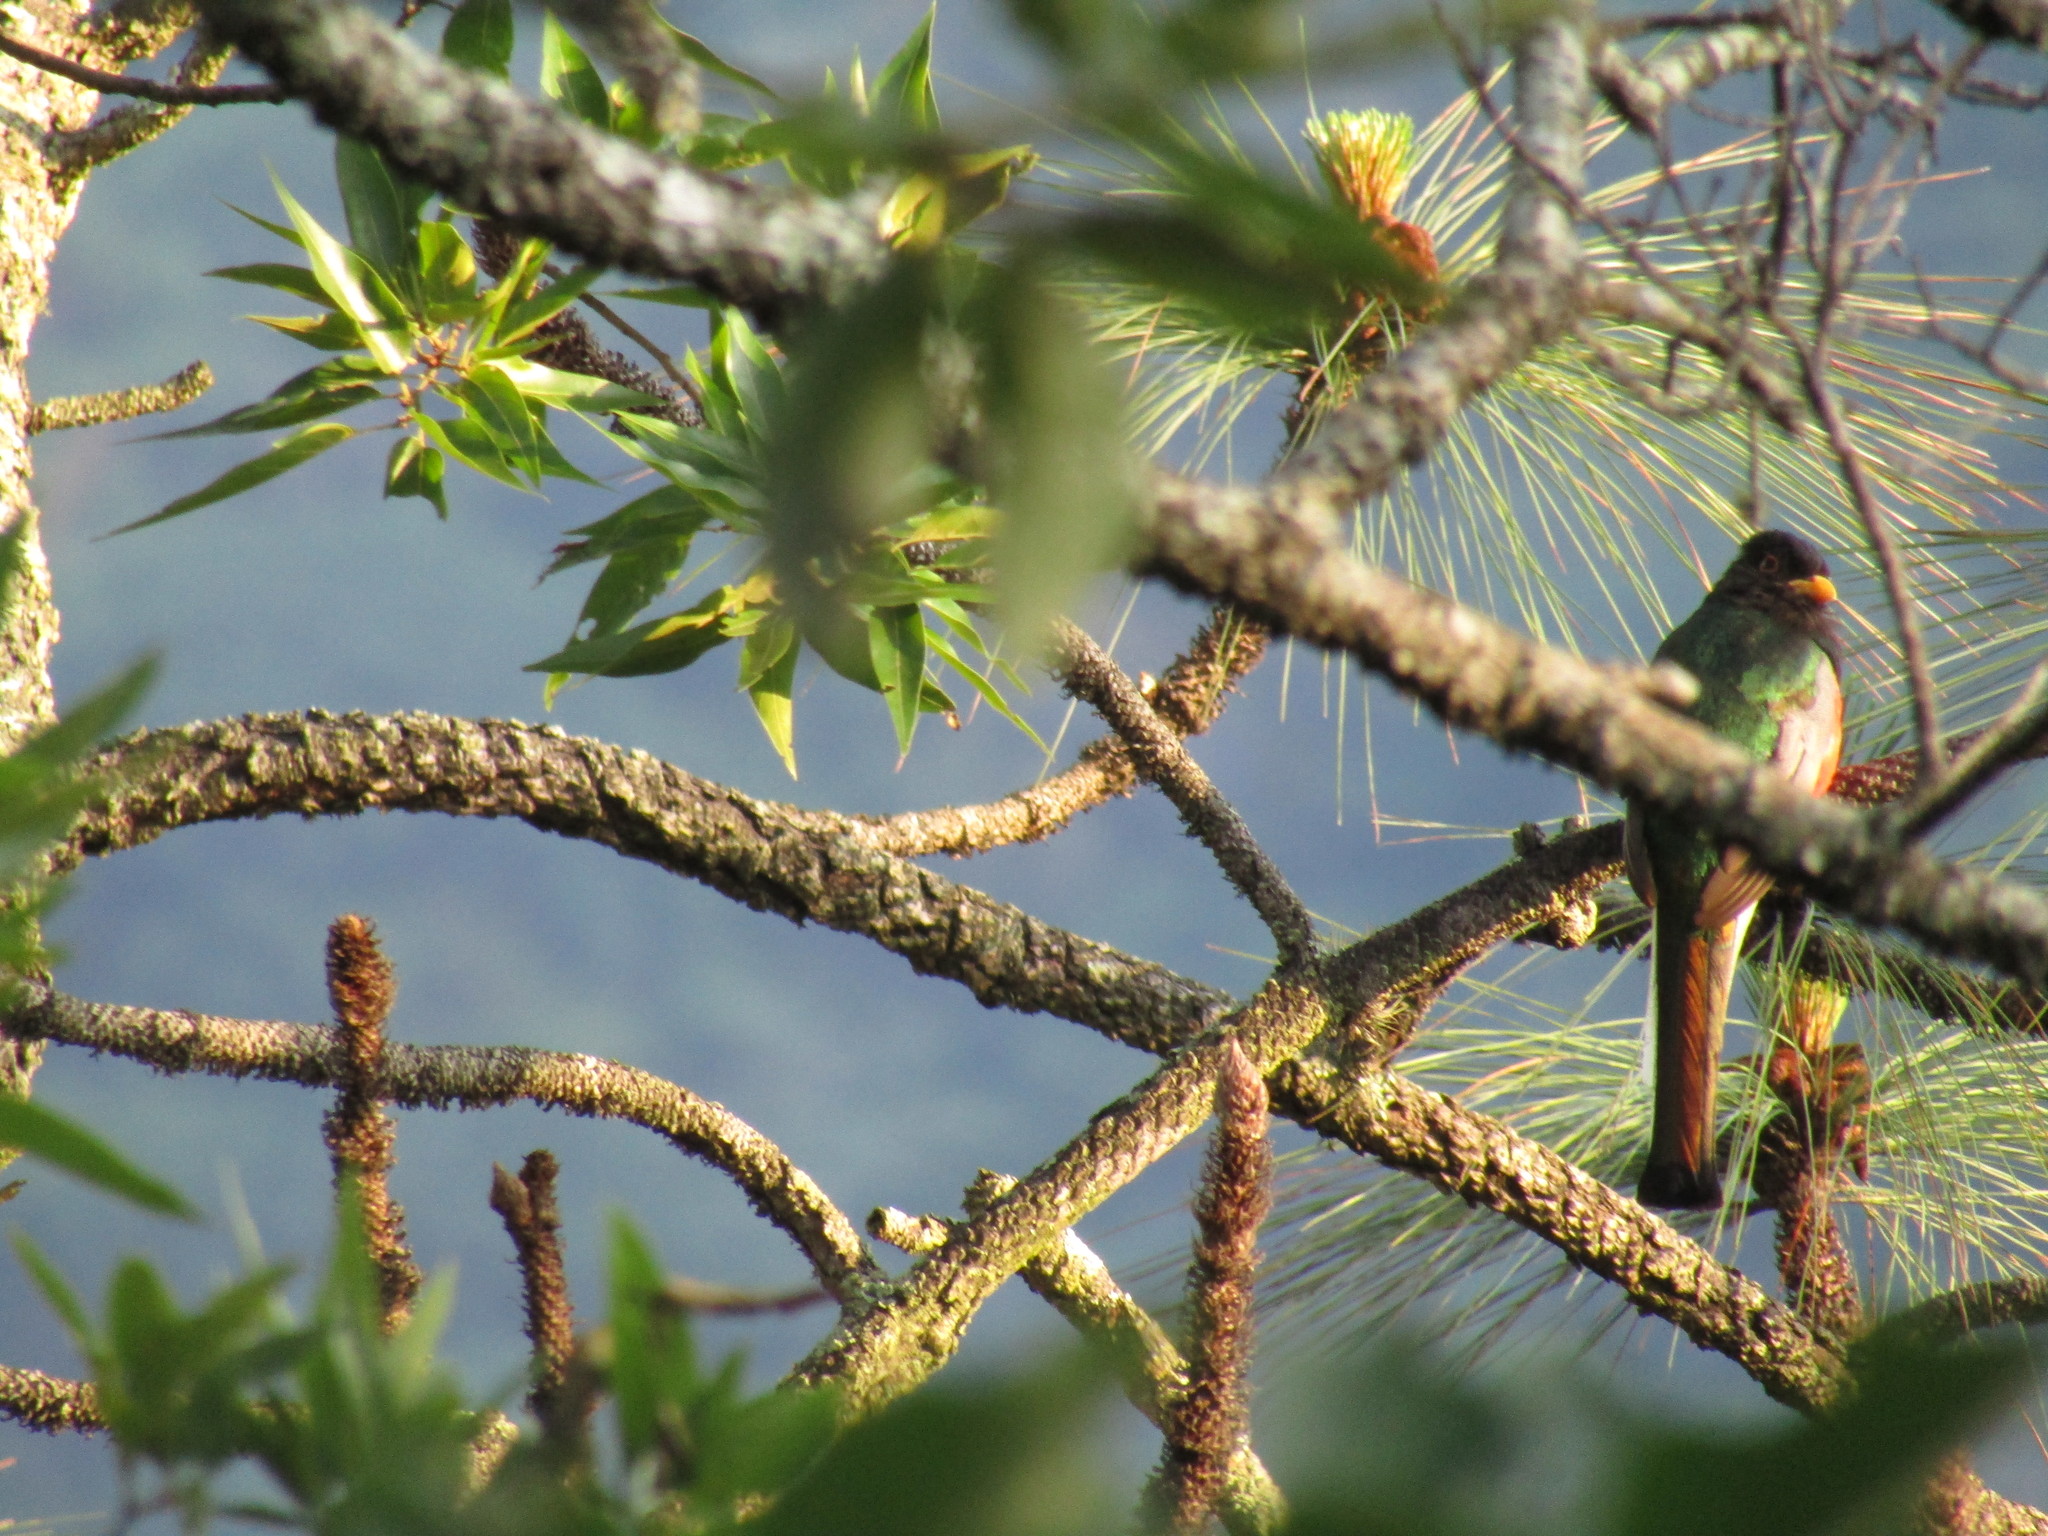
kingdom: Animalia
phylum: Chordata
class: Aves
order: Trogoniformes
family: Trogonidae
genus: Trogon
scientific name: Trogon elegans
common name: Elegant trogon
